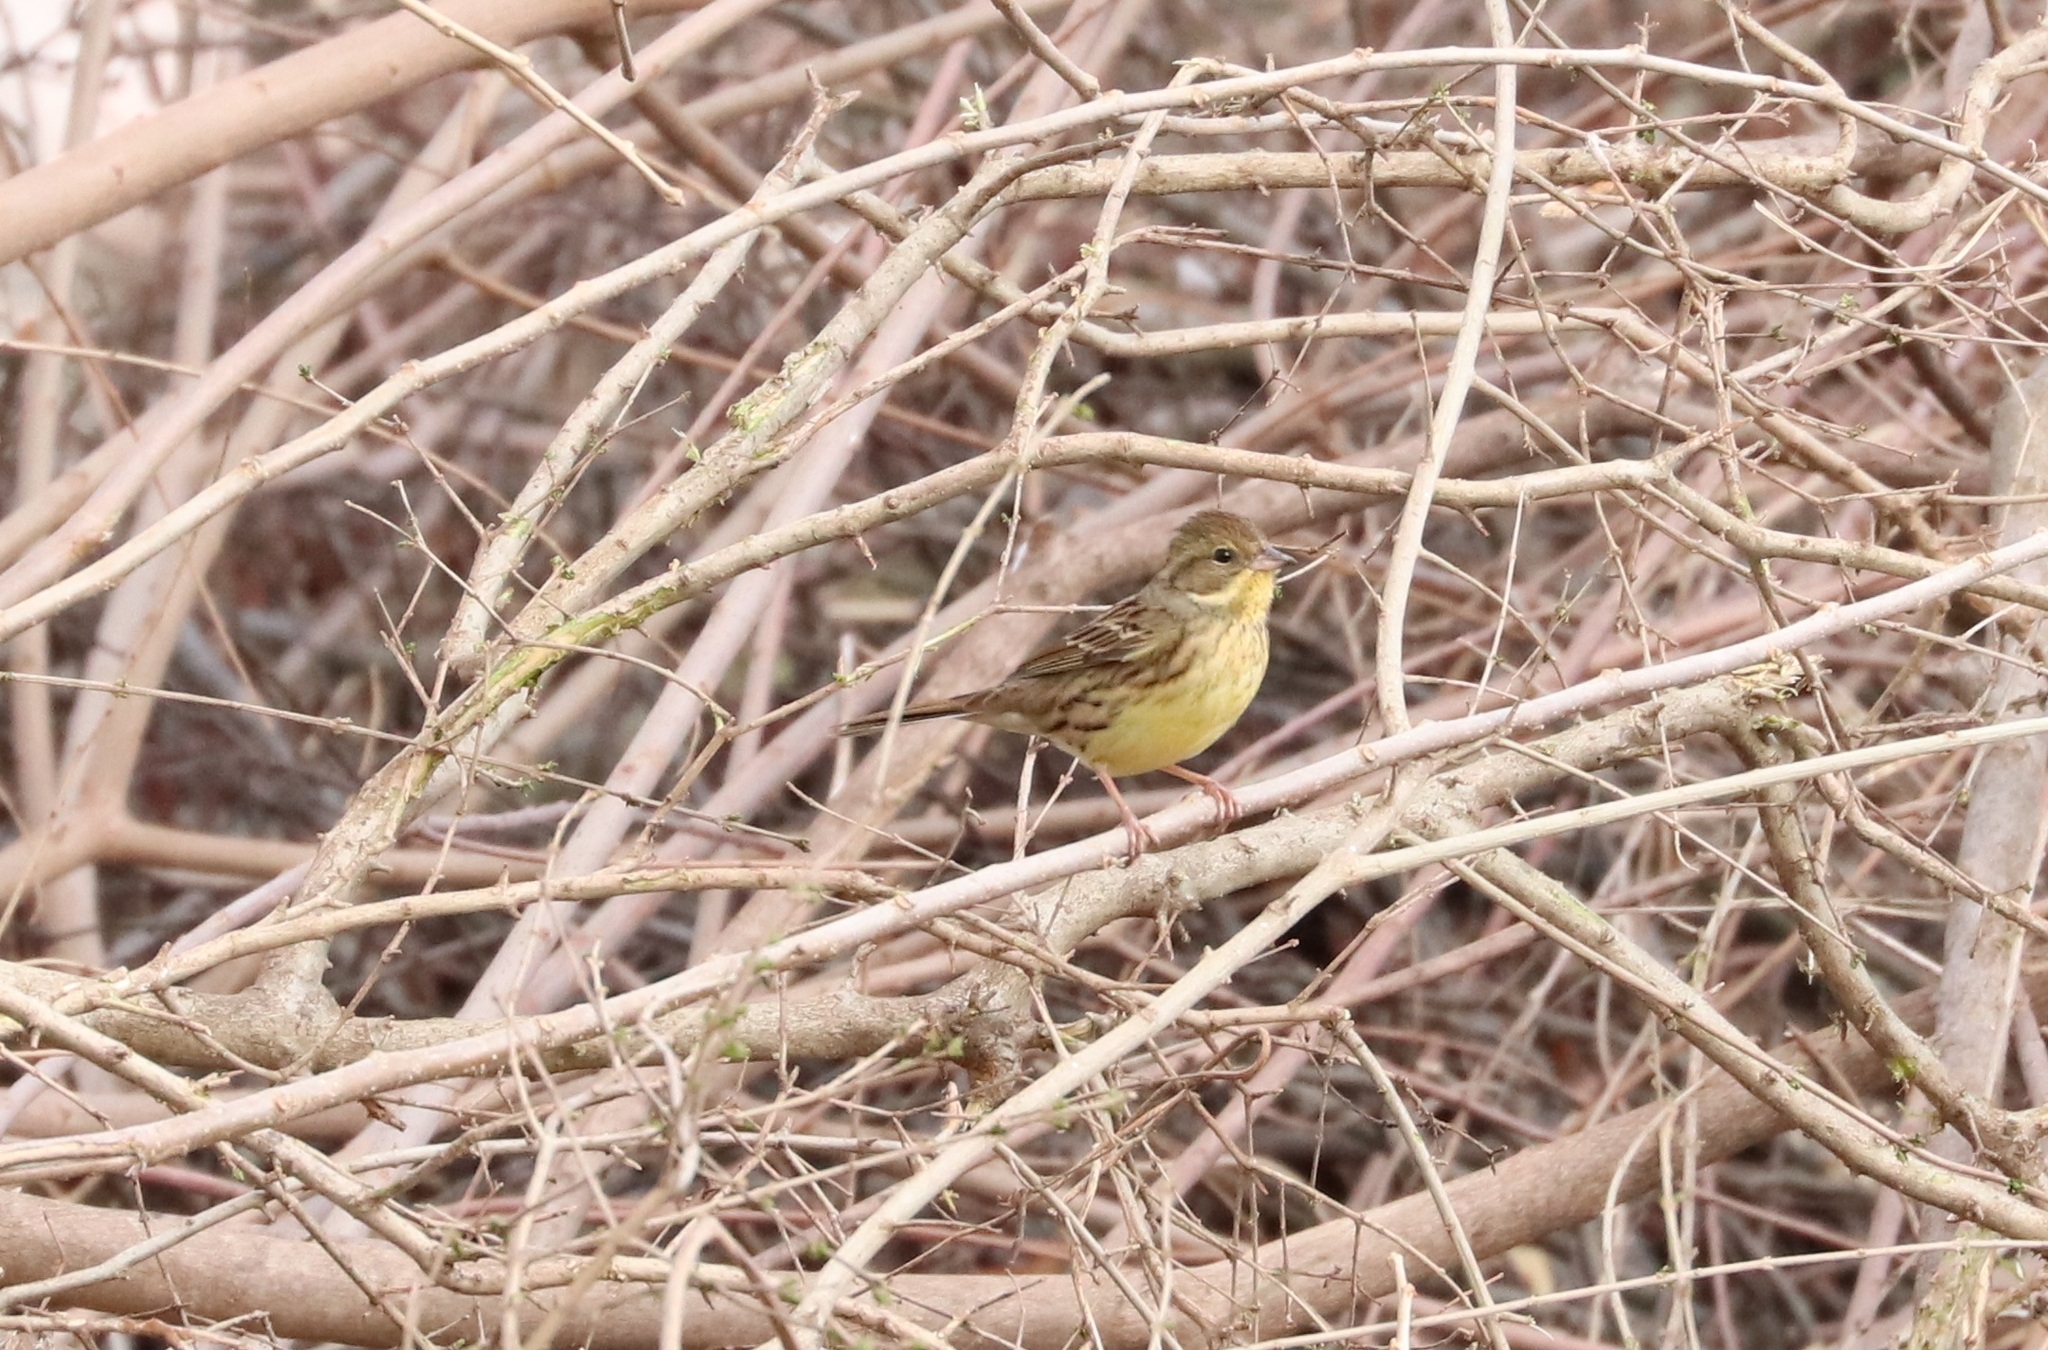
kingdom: Animalia
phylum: Chordata
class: Aves
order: Passeriformes
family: Emberizidae
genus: Emberiza
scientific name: Emberiza personata
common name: Masked bunting
